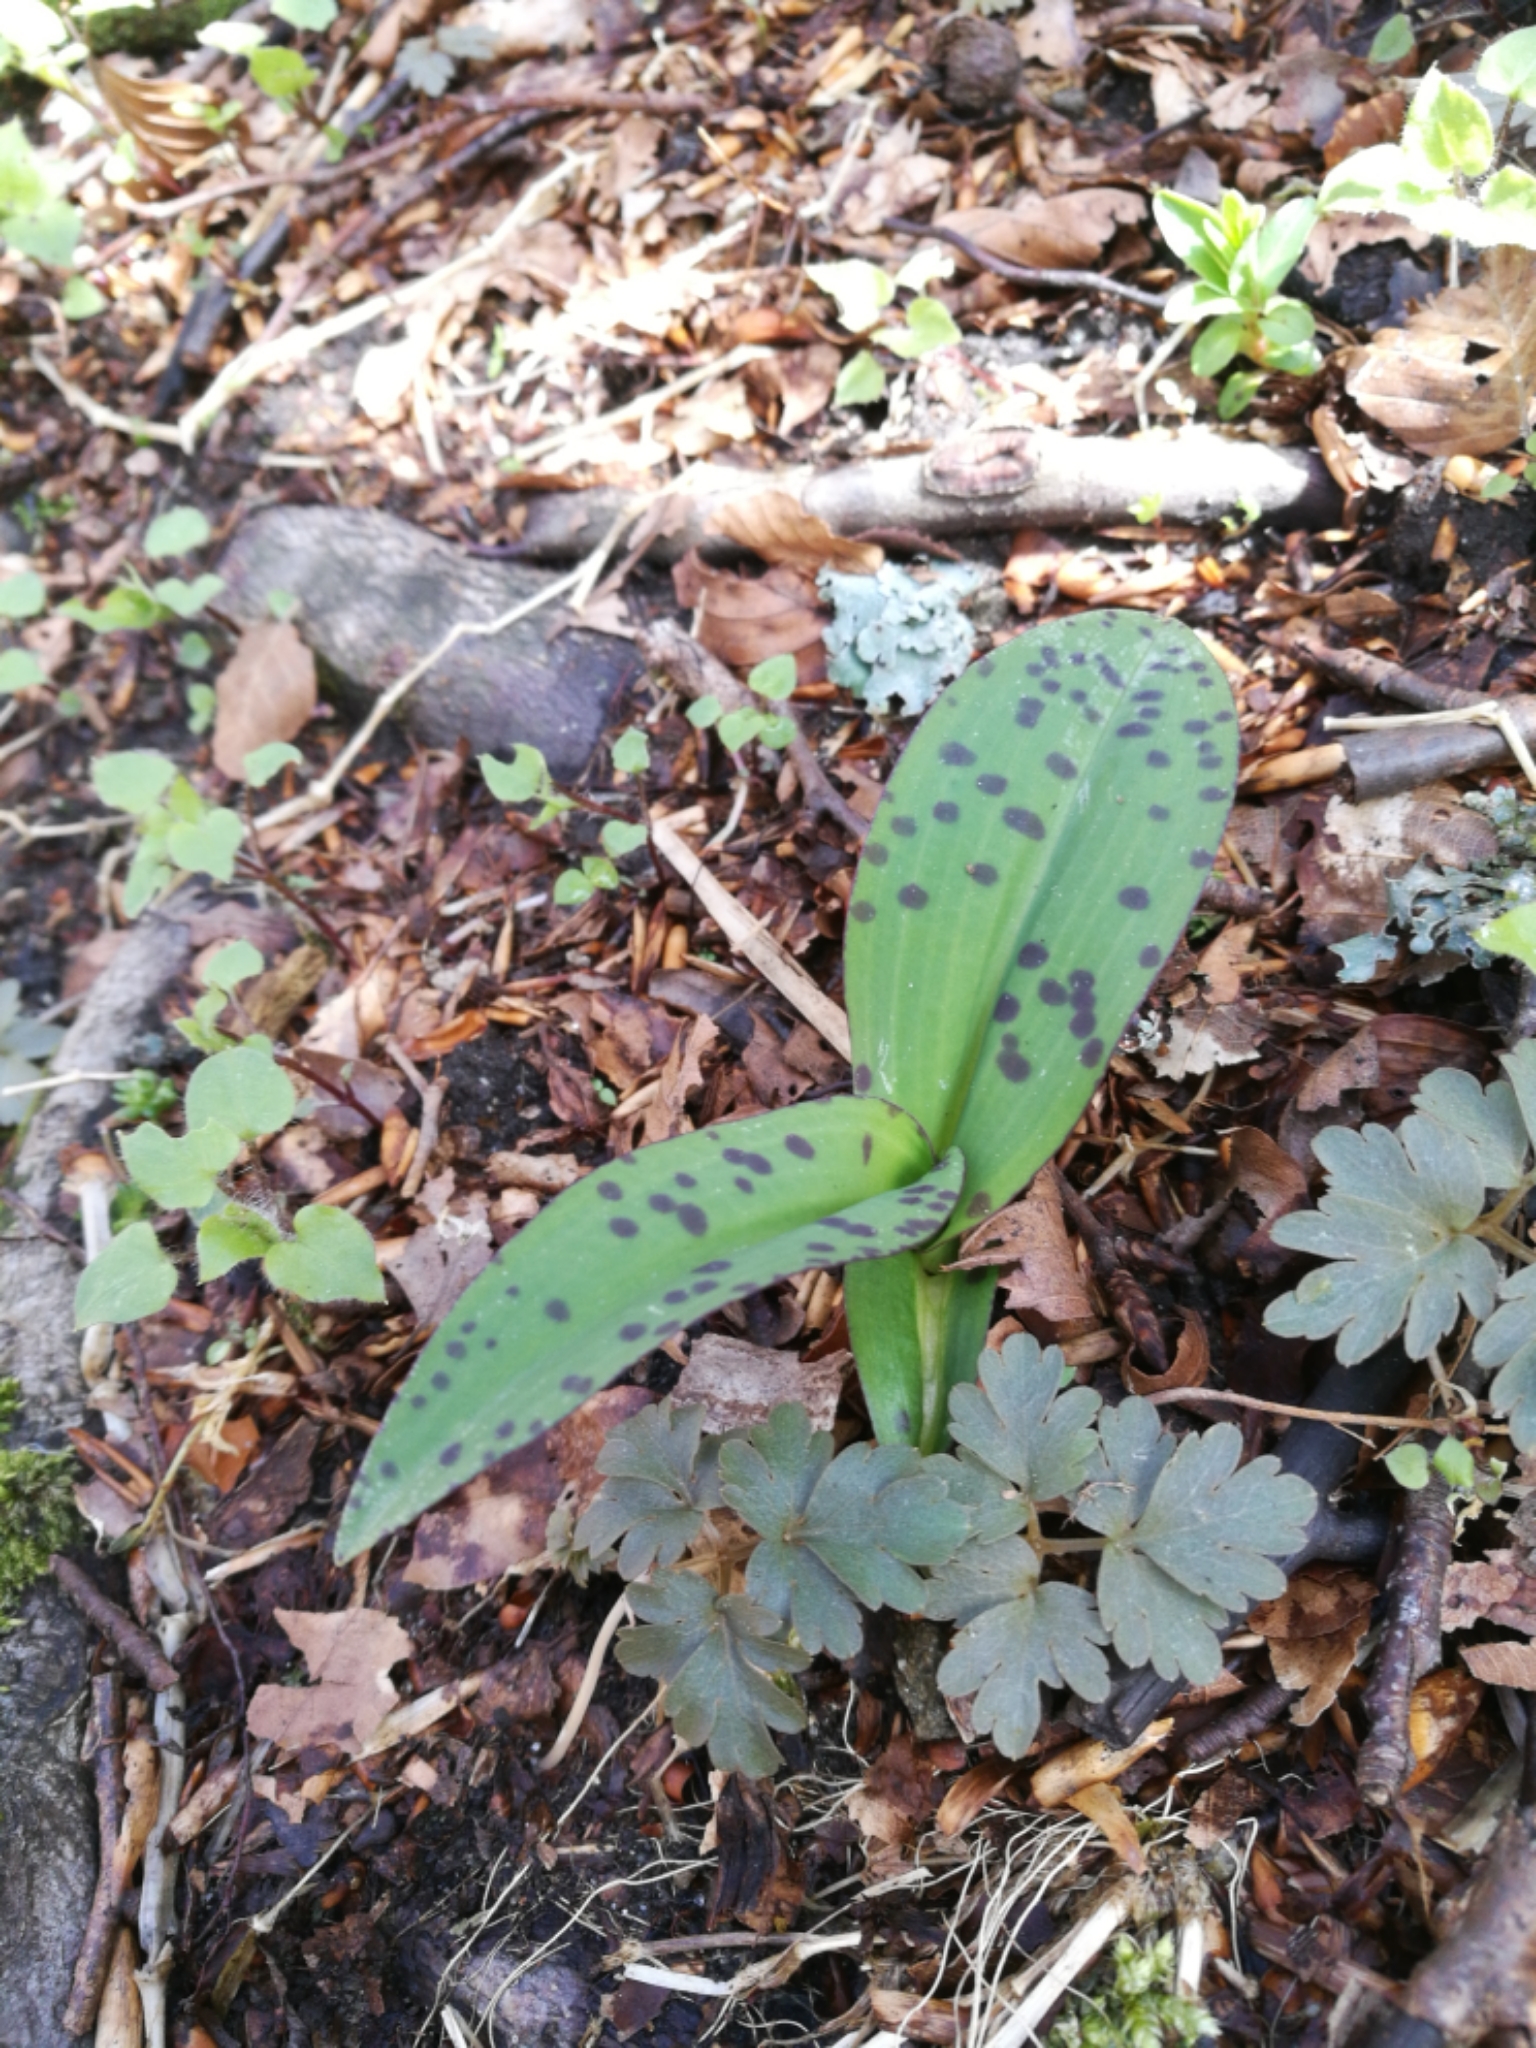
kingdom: Plantae
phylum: Tracheophyta
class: Magnoliopsida
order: Caryophyllales
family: Caryophyllaceae
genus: Stellaria
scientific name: Stellaria nemorum
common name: Wood stitchwort
